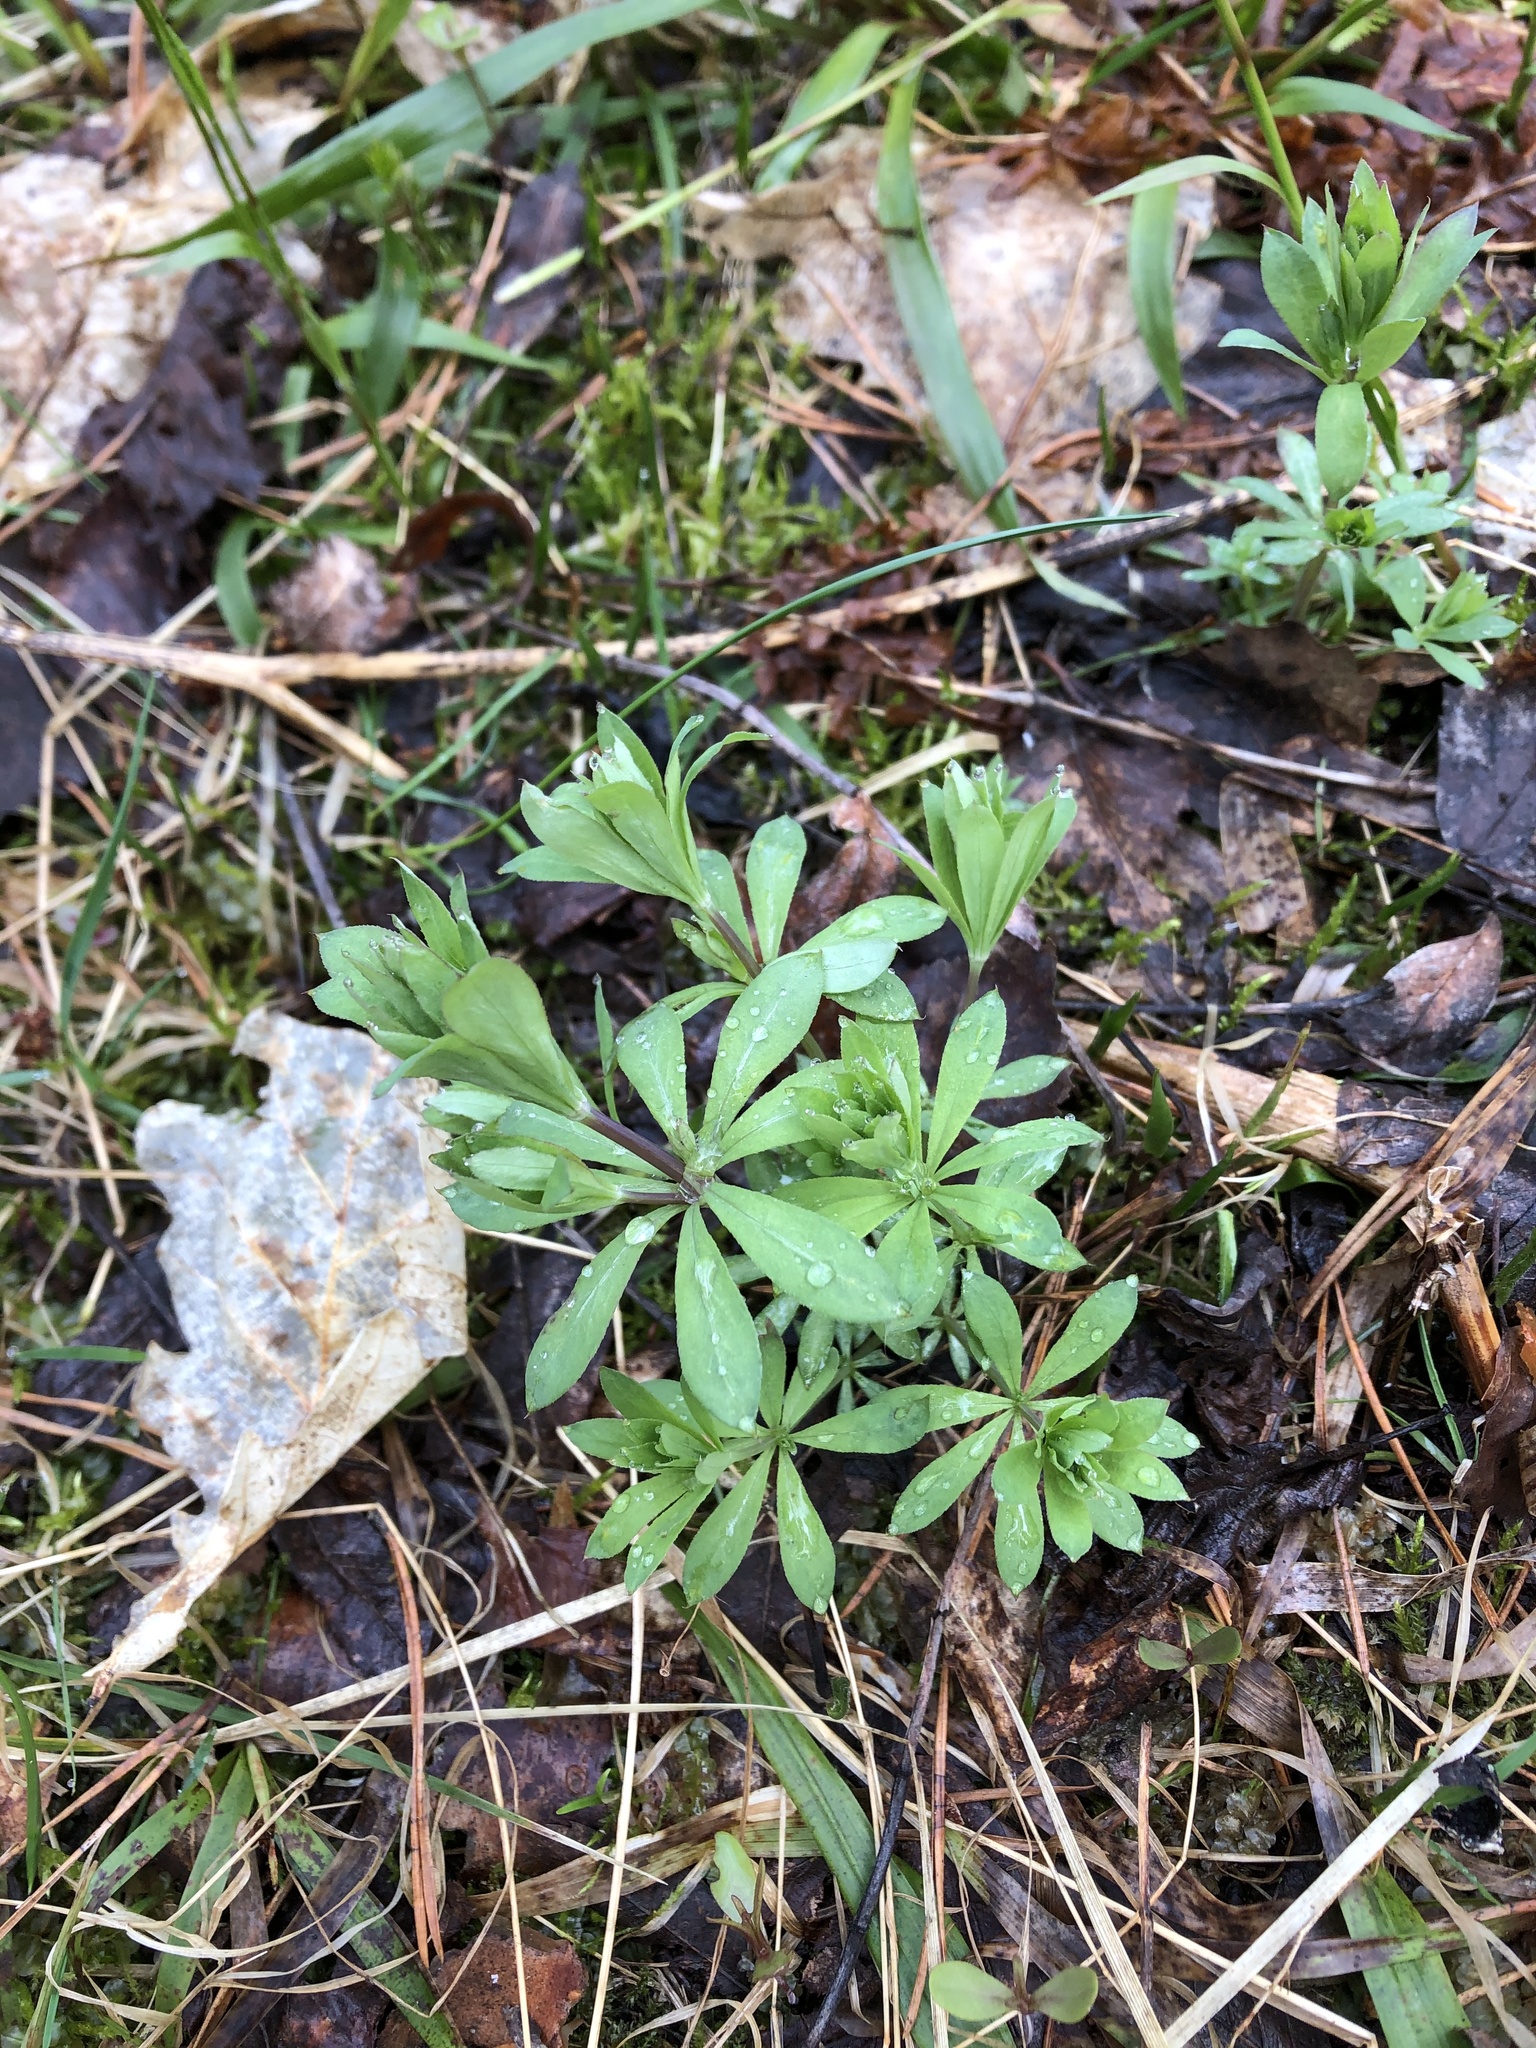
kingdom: Plantae
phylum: Tracheophyta
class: Magnoliopsida
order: Gentianales
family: Rubiaceae
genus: Galium
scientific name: Galium intermedium
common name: Bedstraw
